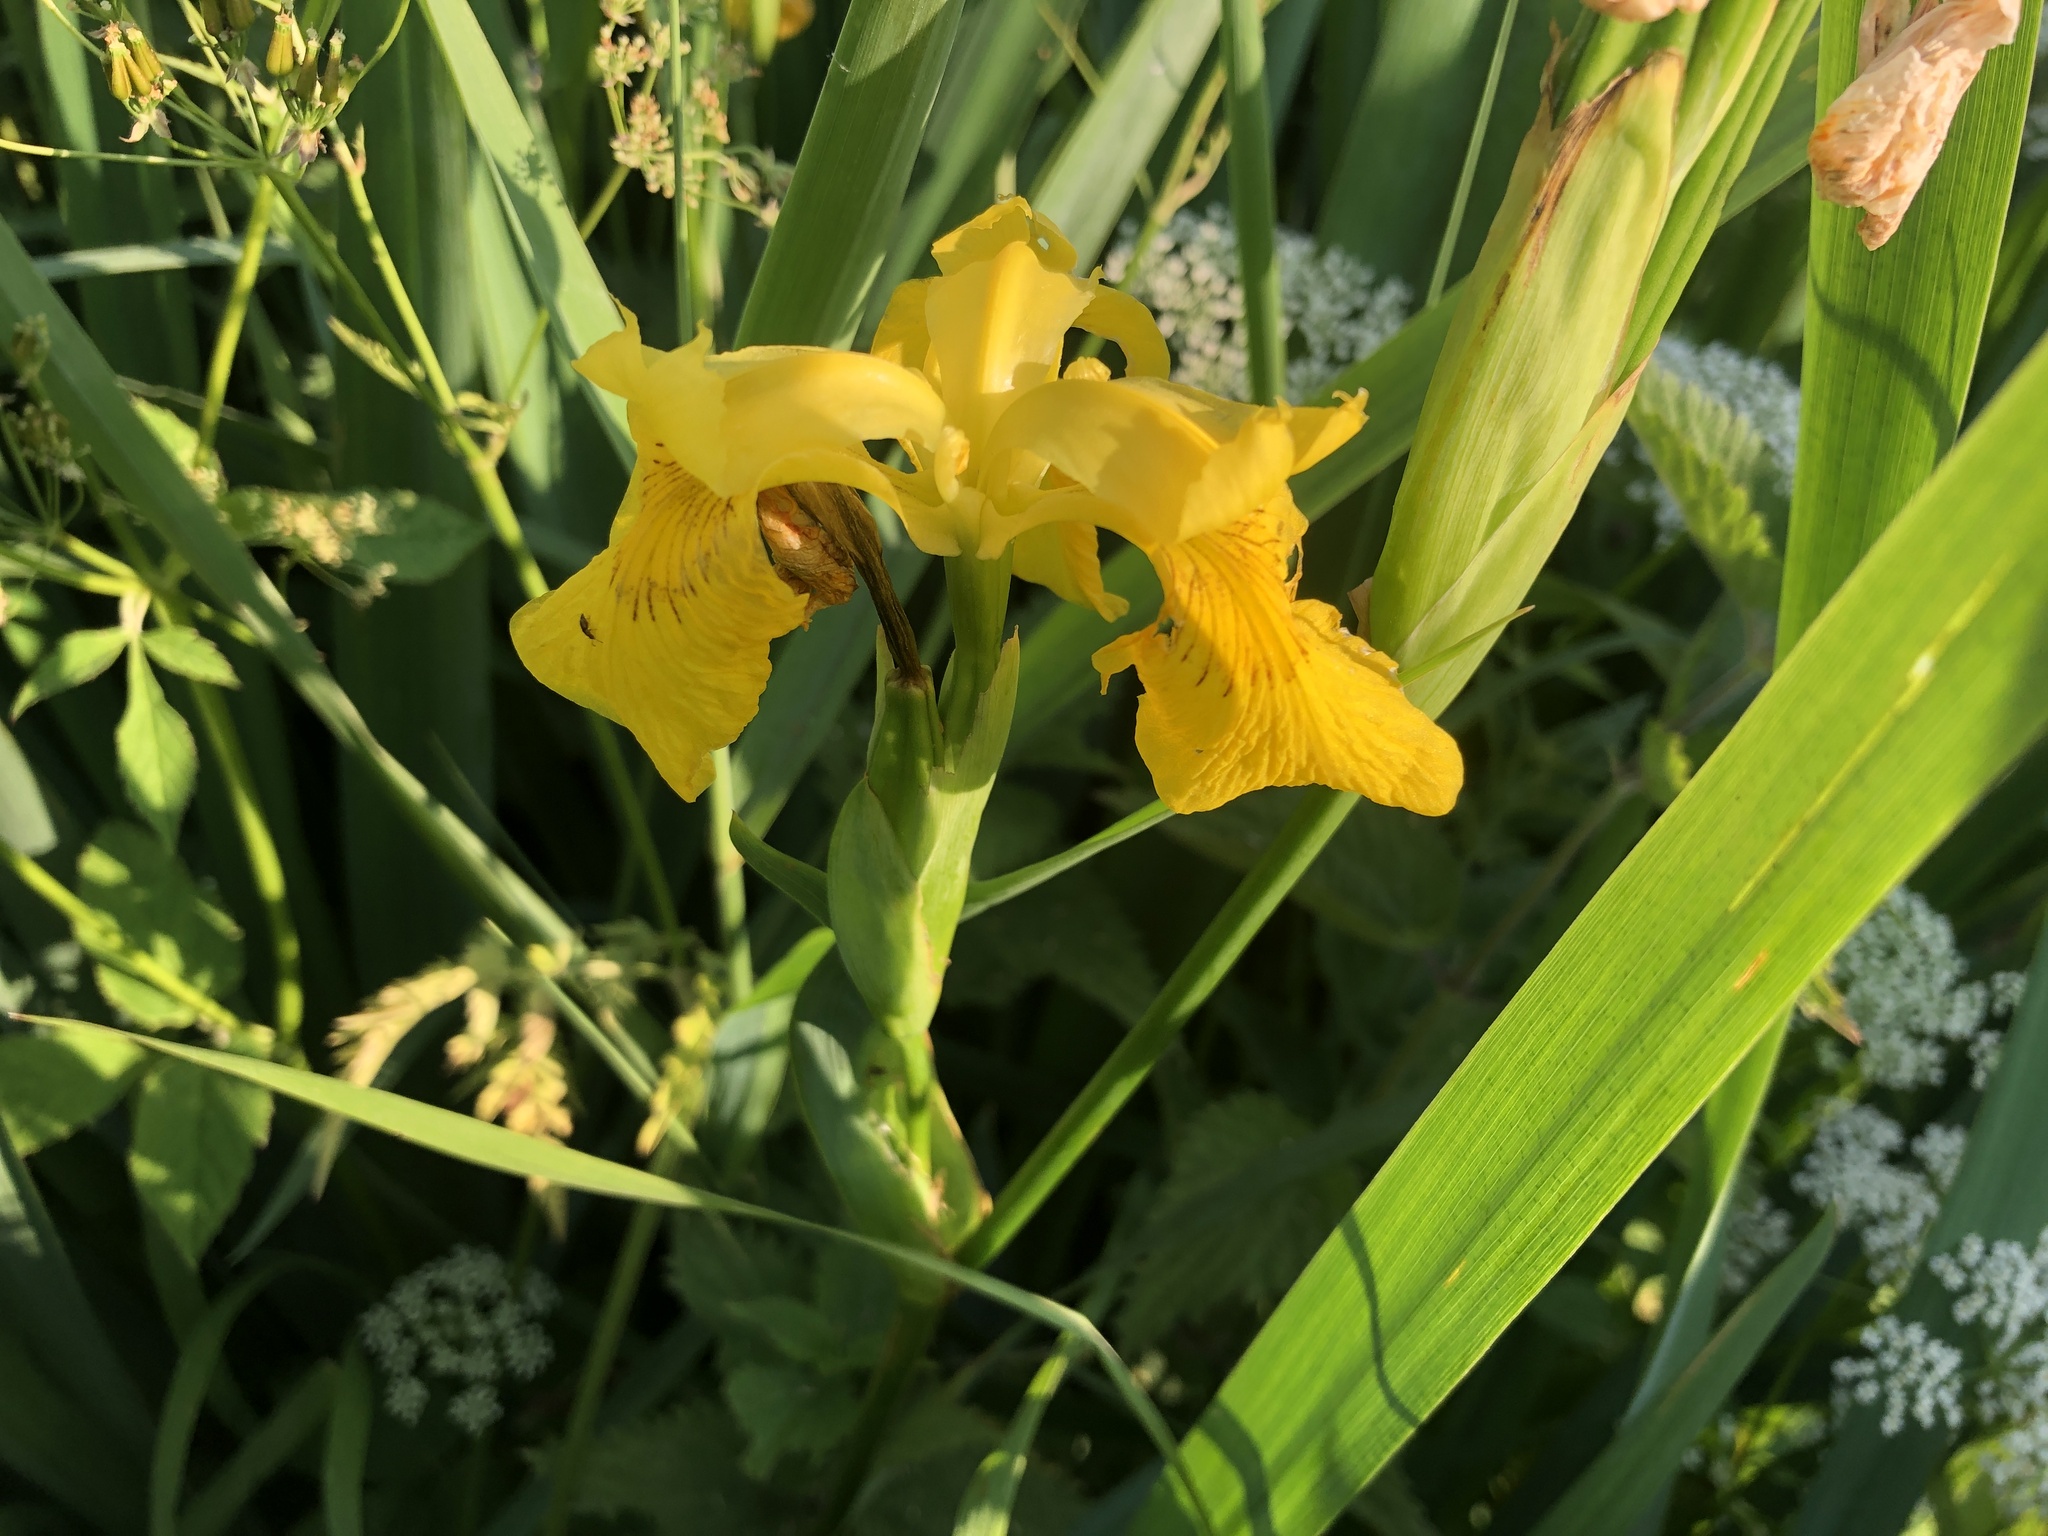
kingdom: Plantae
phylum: Tracheophyta
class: Liliopsida
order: Asparagales
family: Iridaceae
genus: Iris
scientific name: Iris pseudacorus
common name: Yellow flag
